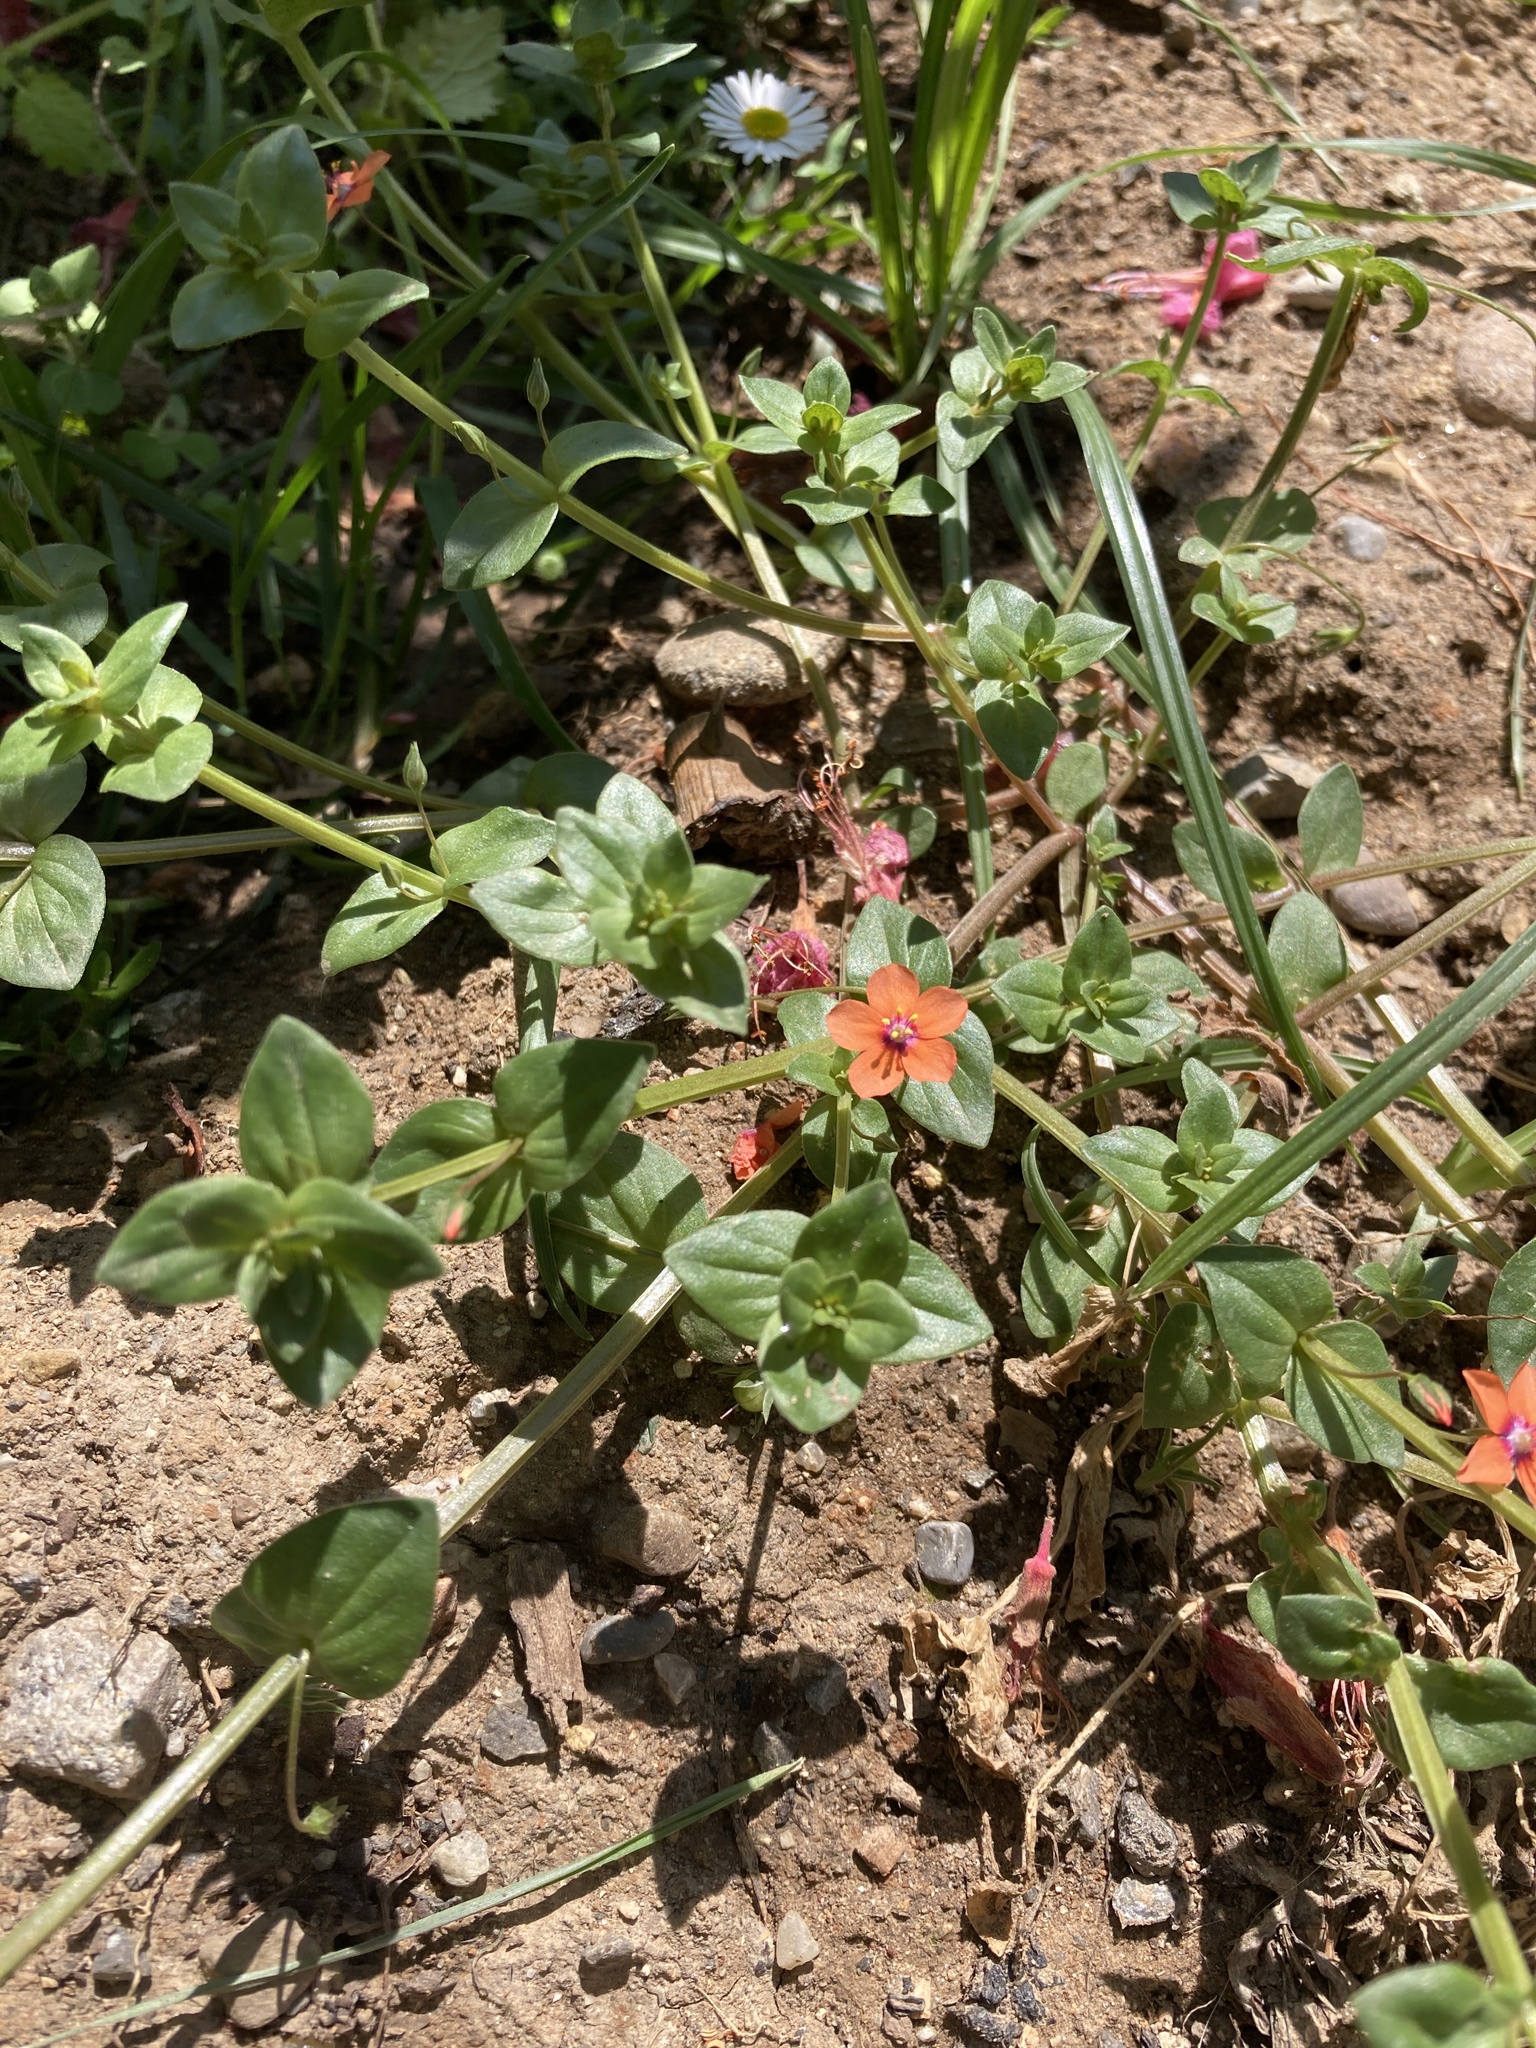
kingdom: Plantae
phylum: Tracheophyta
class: Magnoliopsida
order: Ericales
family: Primulaceae
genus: Lysimachia
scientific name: Lysimachia arvensis
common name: Scarlet pimpernel
